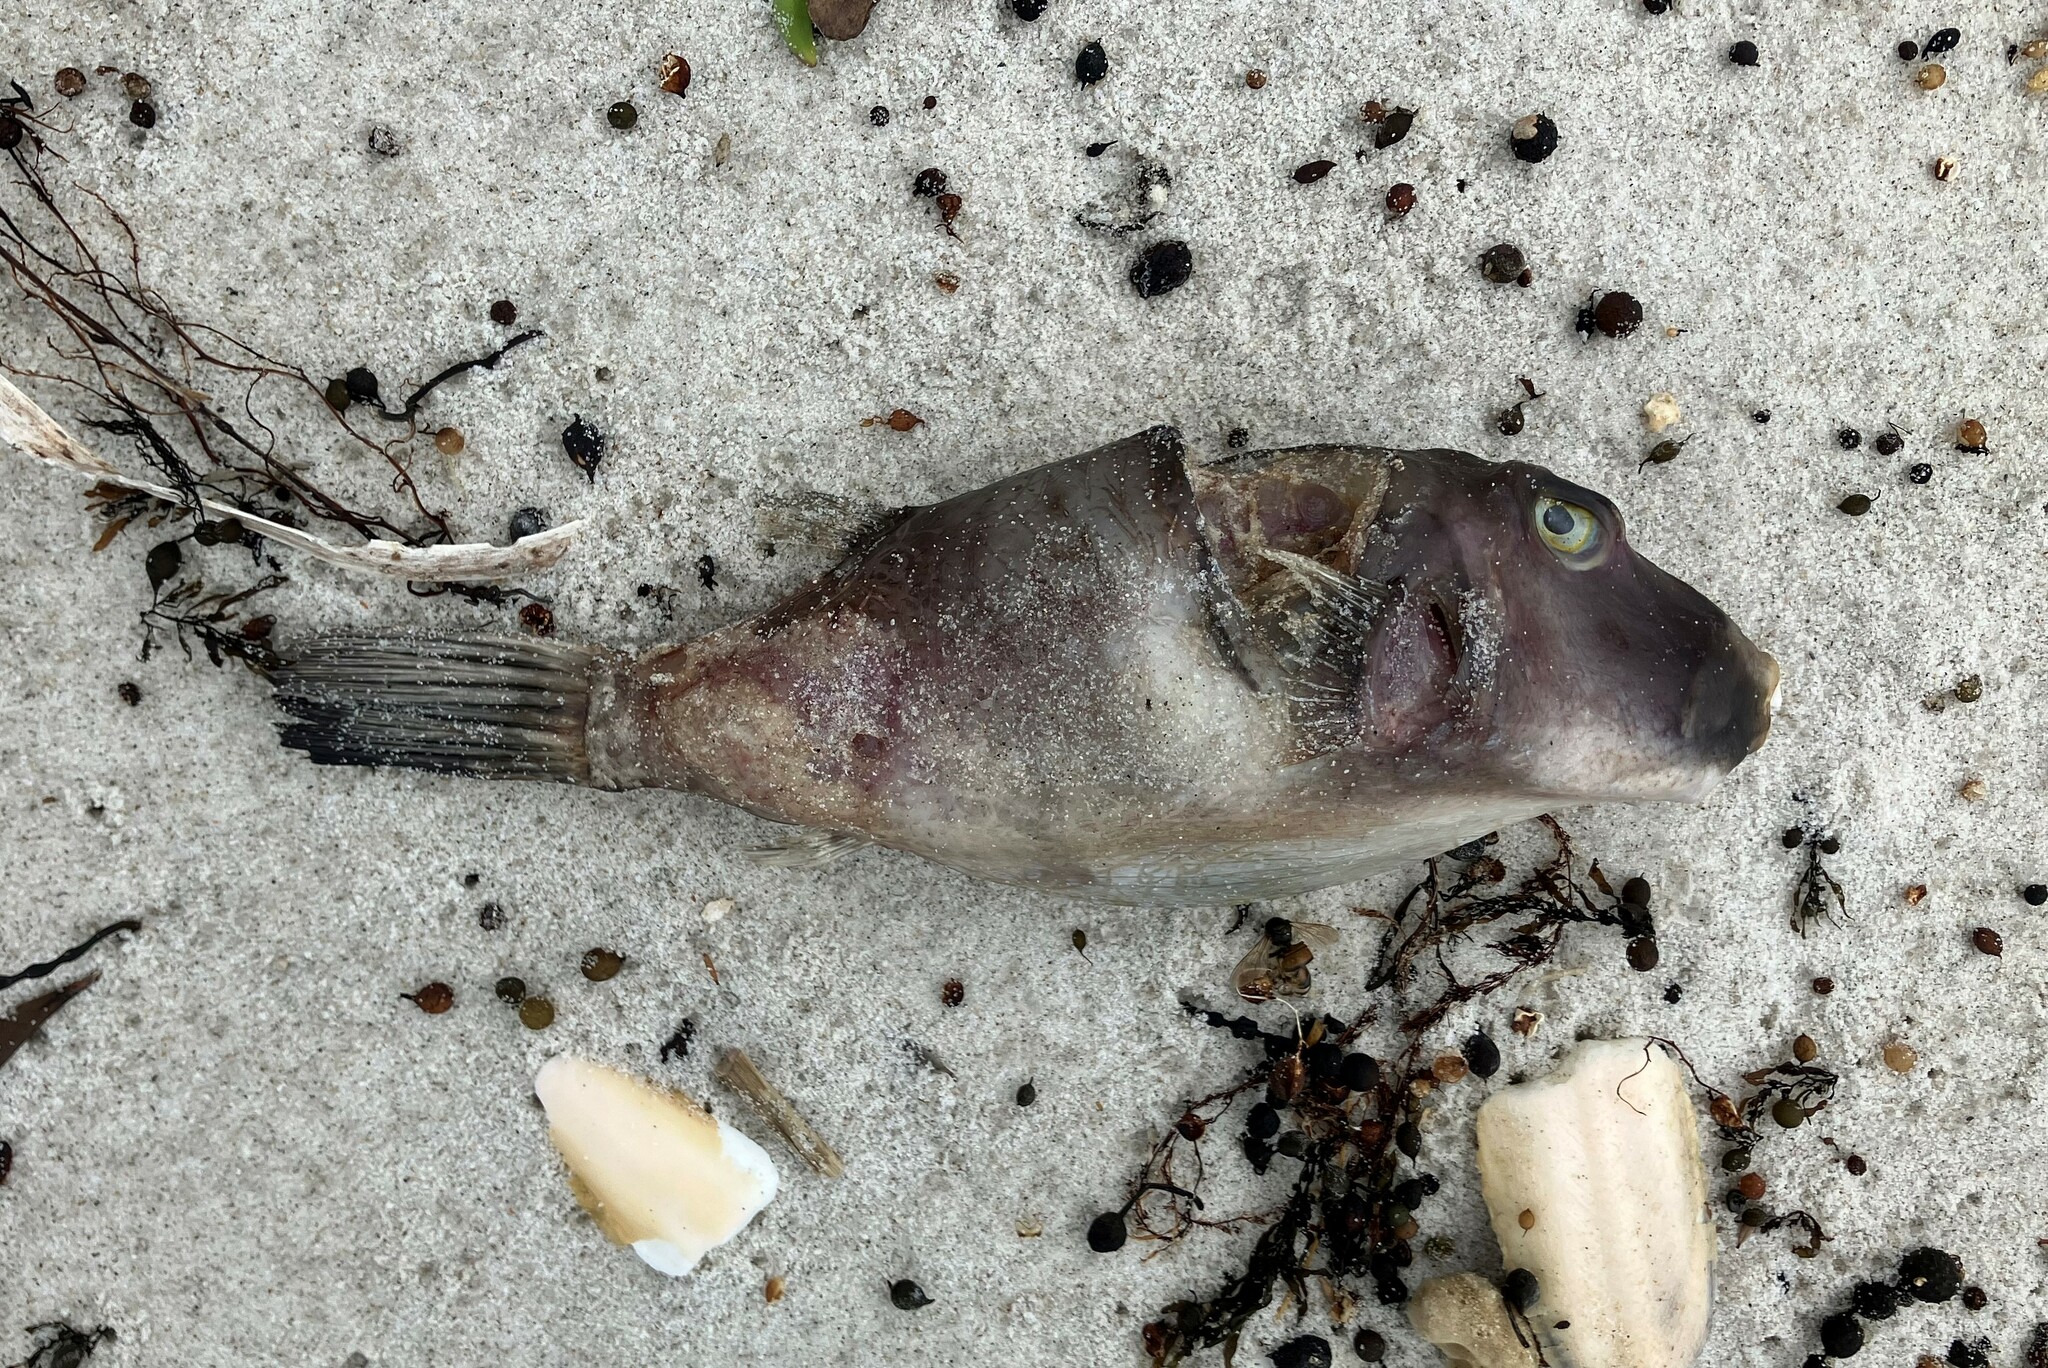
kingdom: Animalia
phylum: Chordata
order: Tetraodontiformes
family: Tetraodontidae
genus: Omegophora
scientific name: Omegophora armilla
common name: Ringed pufferfish
